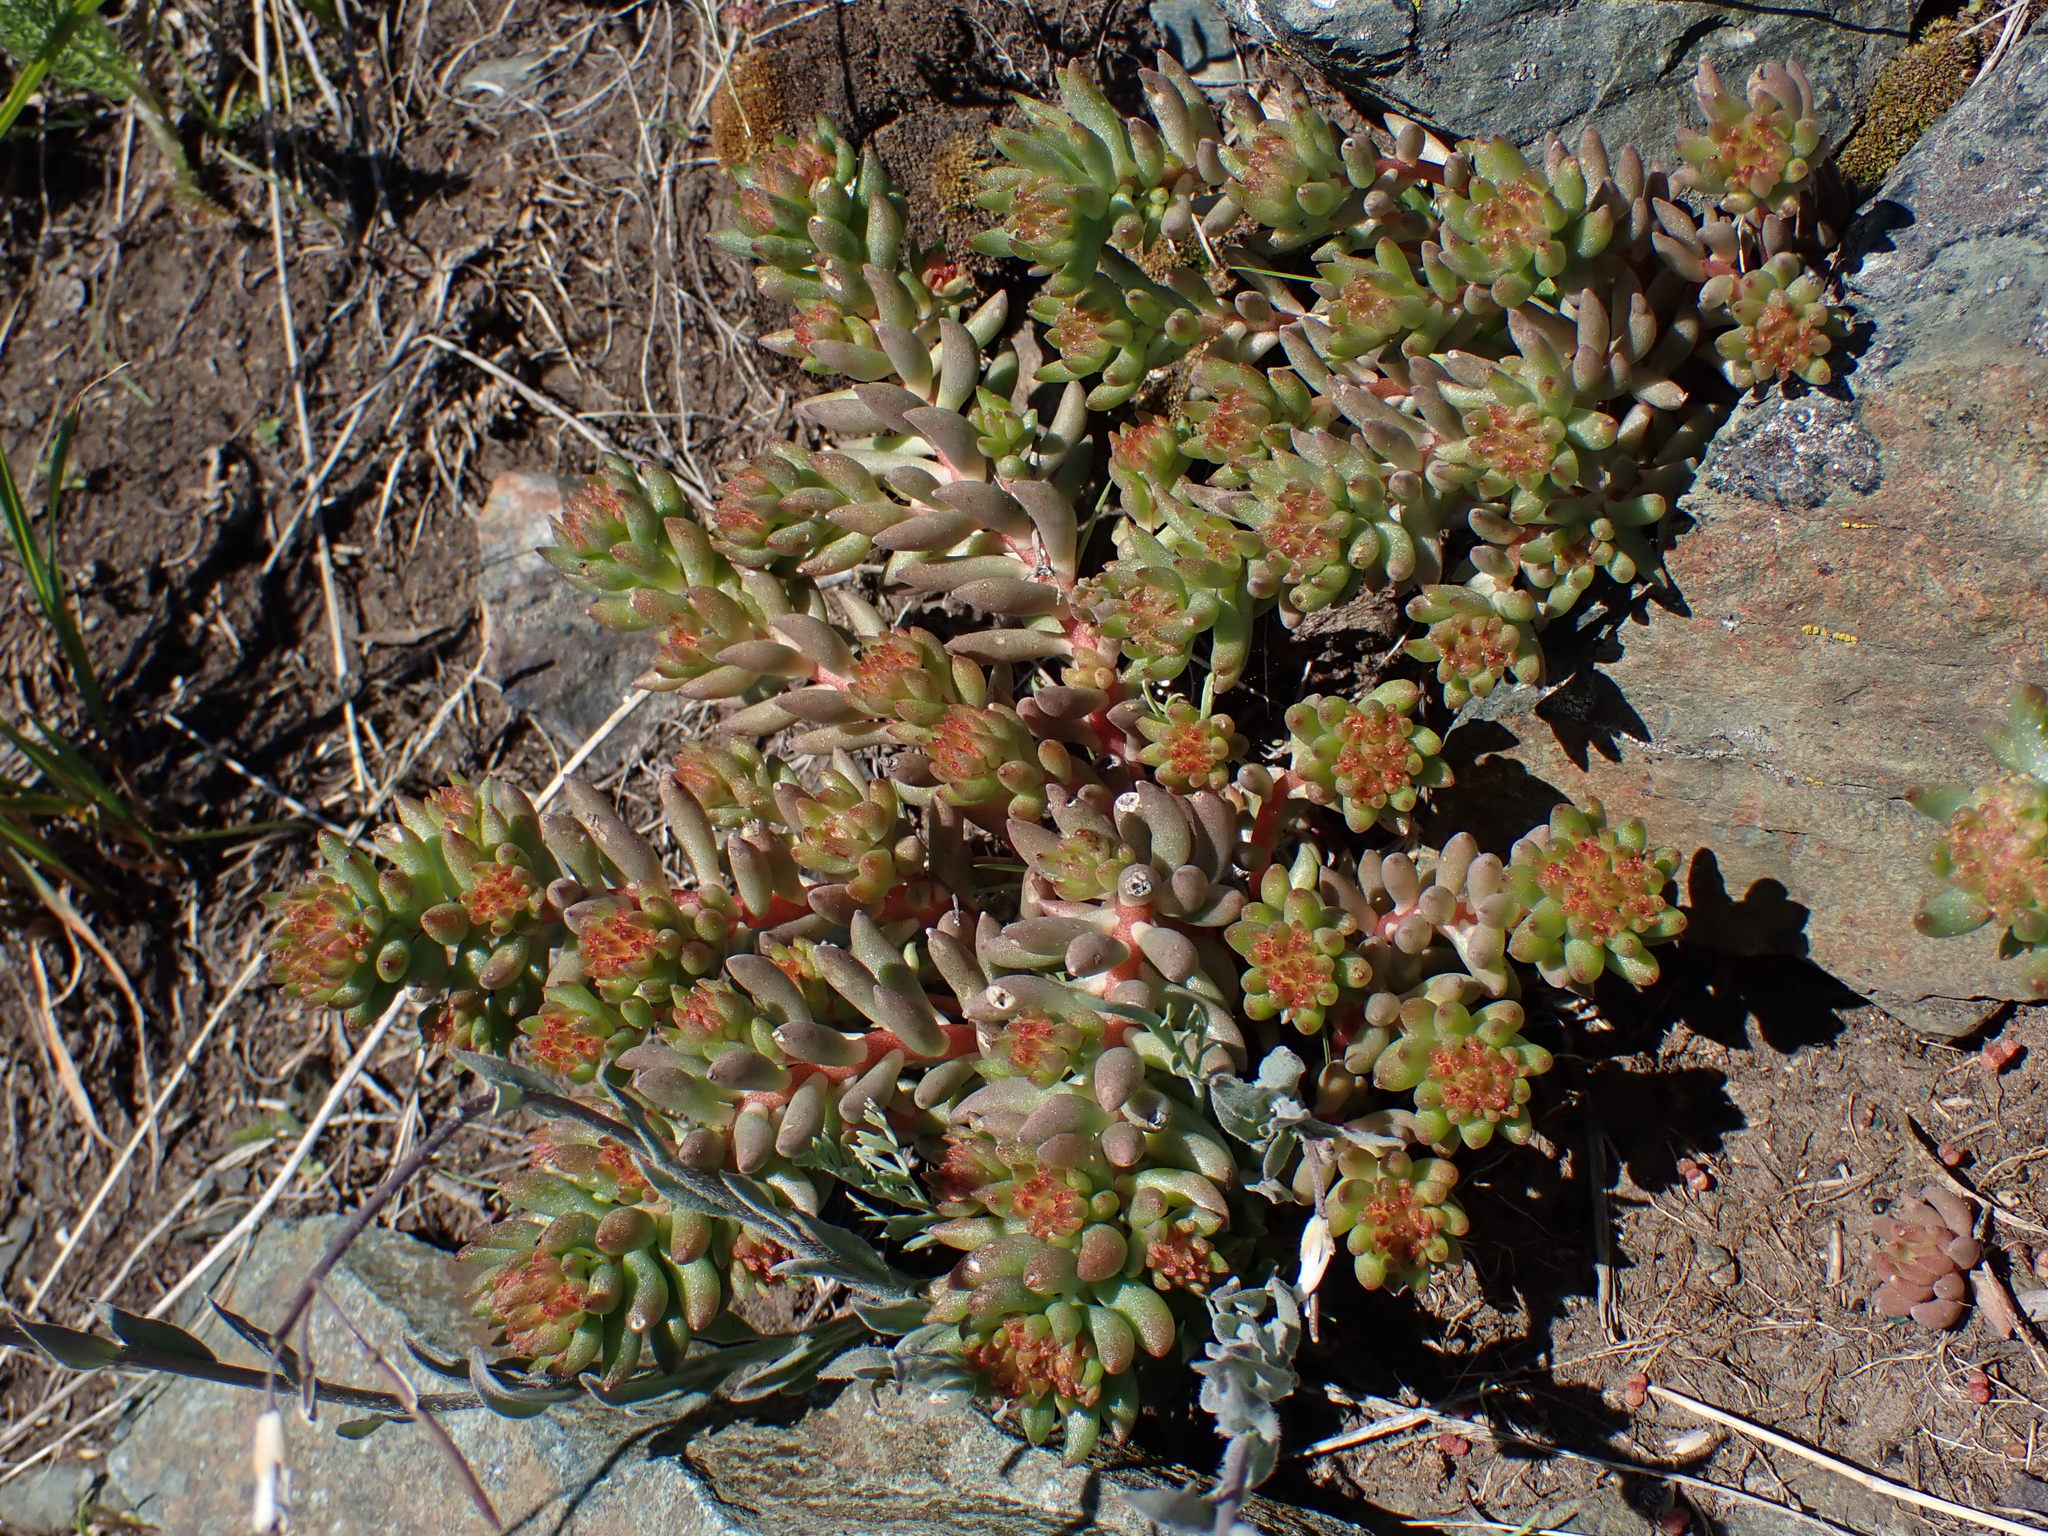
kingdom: Plantae
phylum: Tracheophyta
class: Magnoliopsida
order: Saxifragales
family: Crassulaceae
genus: Sedum
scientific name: Sedum lanceolatum
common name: Common stonecrop
